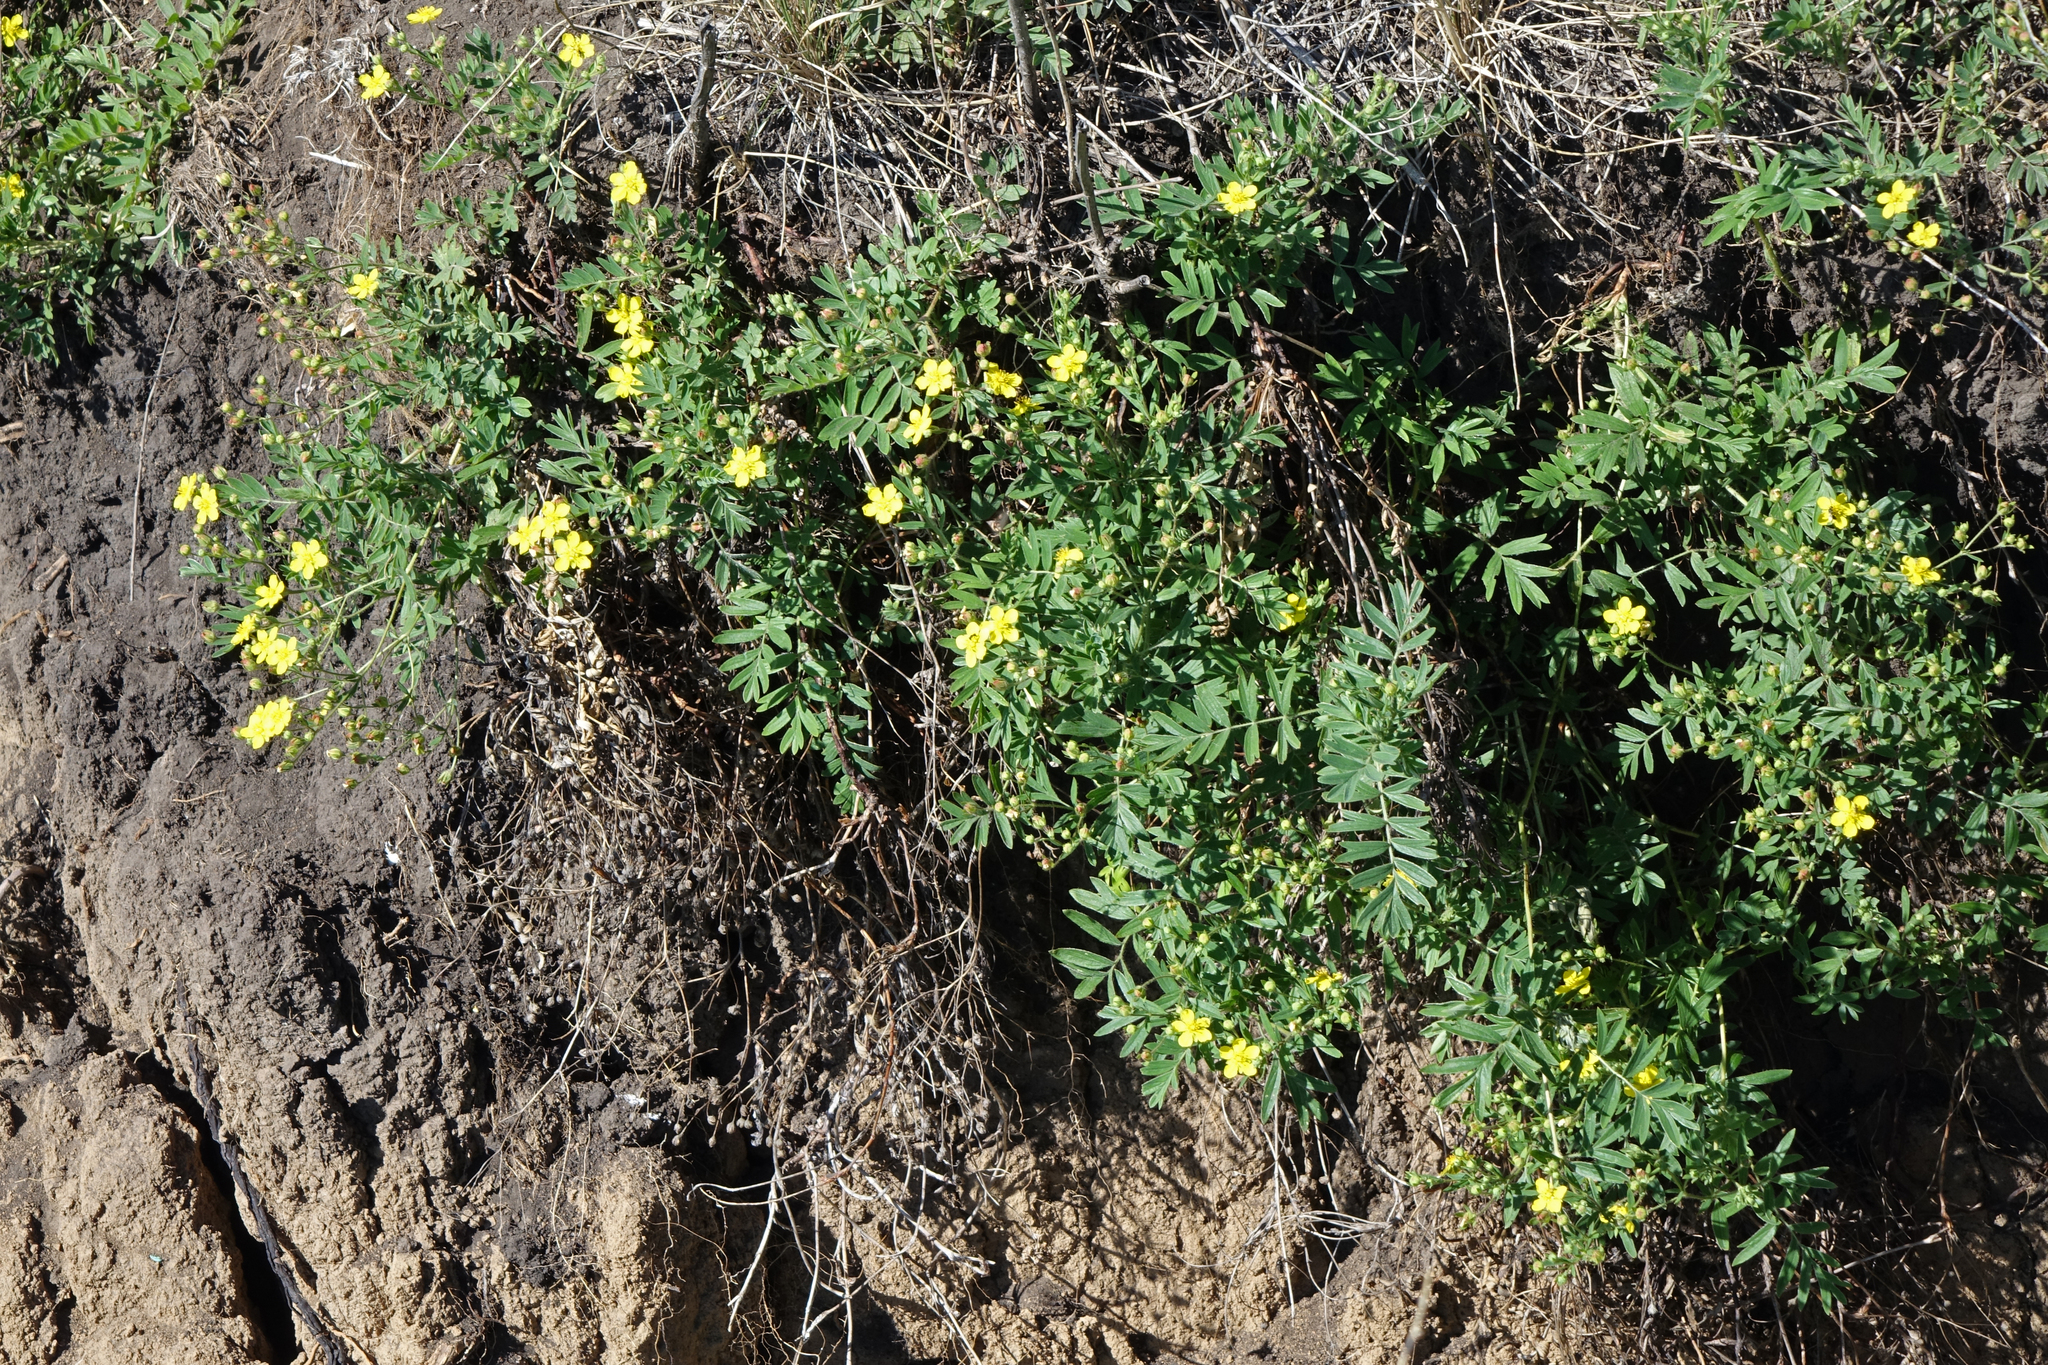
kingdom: Plantae
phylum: Tracheophyta
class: Magnoliopsida
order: Rosales
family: Rosaceae
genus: Sibbaldianthe
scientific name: Sibbaldianthe bifurca
